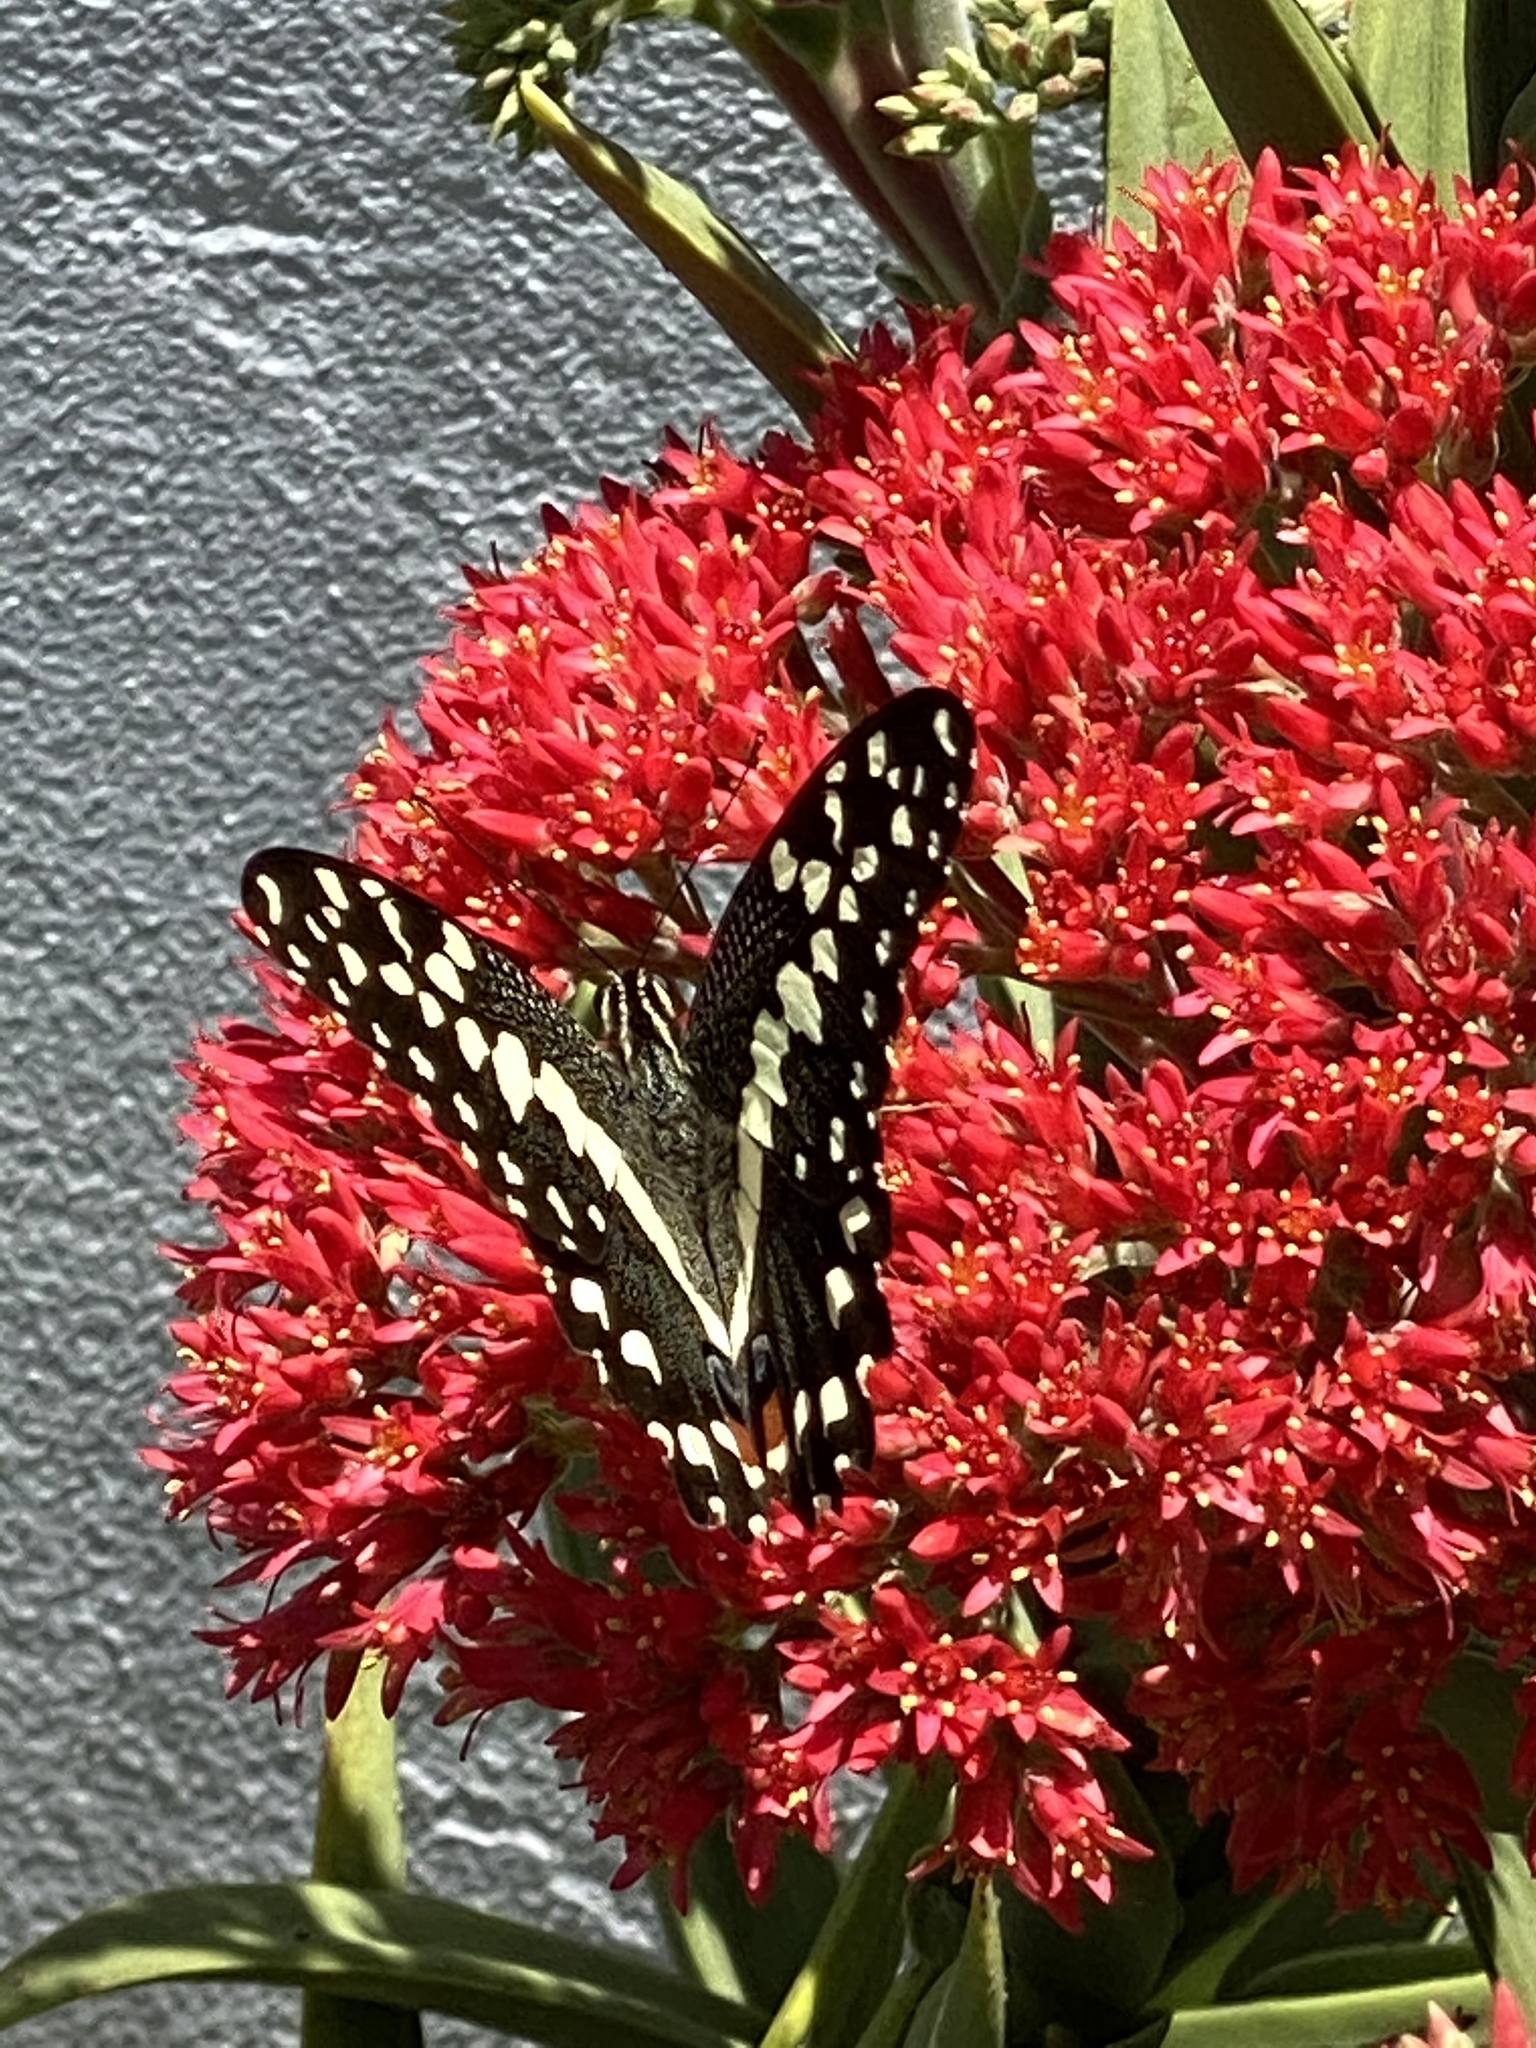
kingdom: Animalia
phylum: Arthropoda
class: Insecta
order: Lepidoptera
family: Papilionidae
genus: Papilio
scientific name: Papilio demodocus
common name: Christmas butterfly
